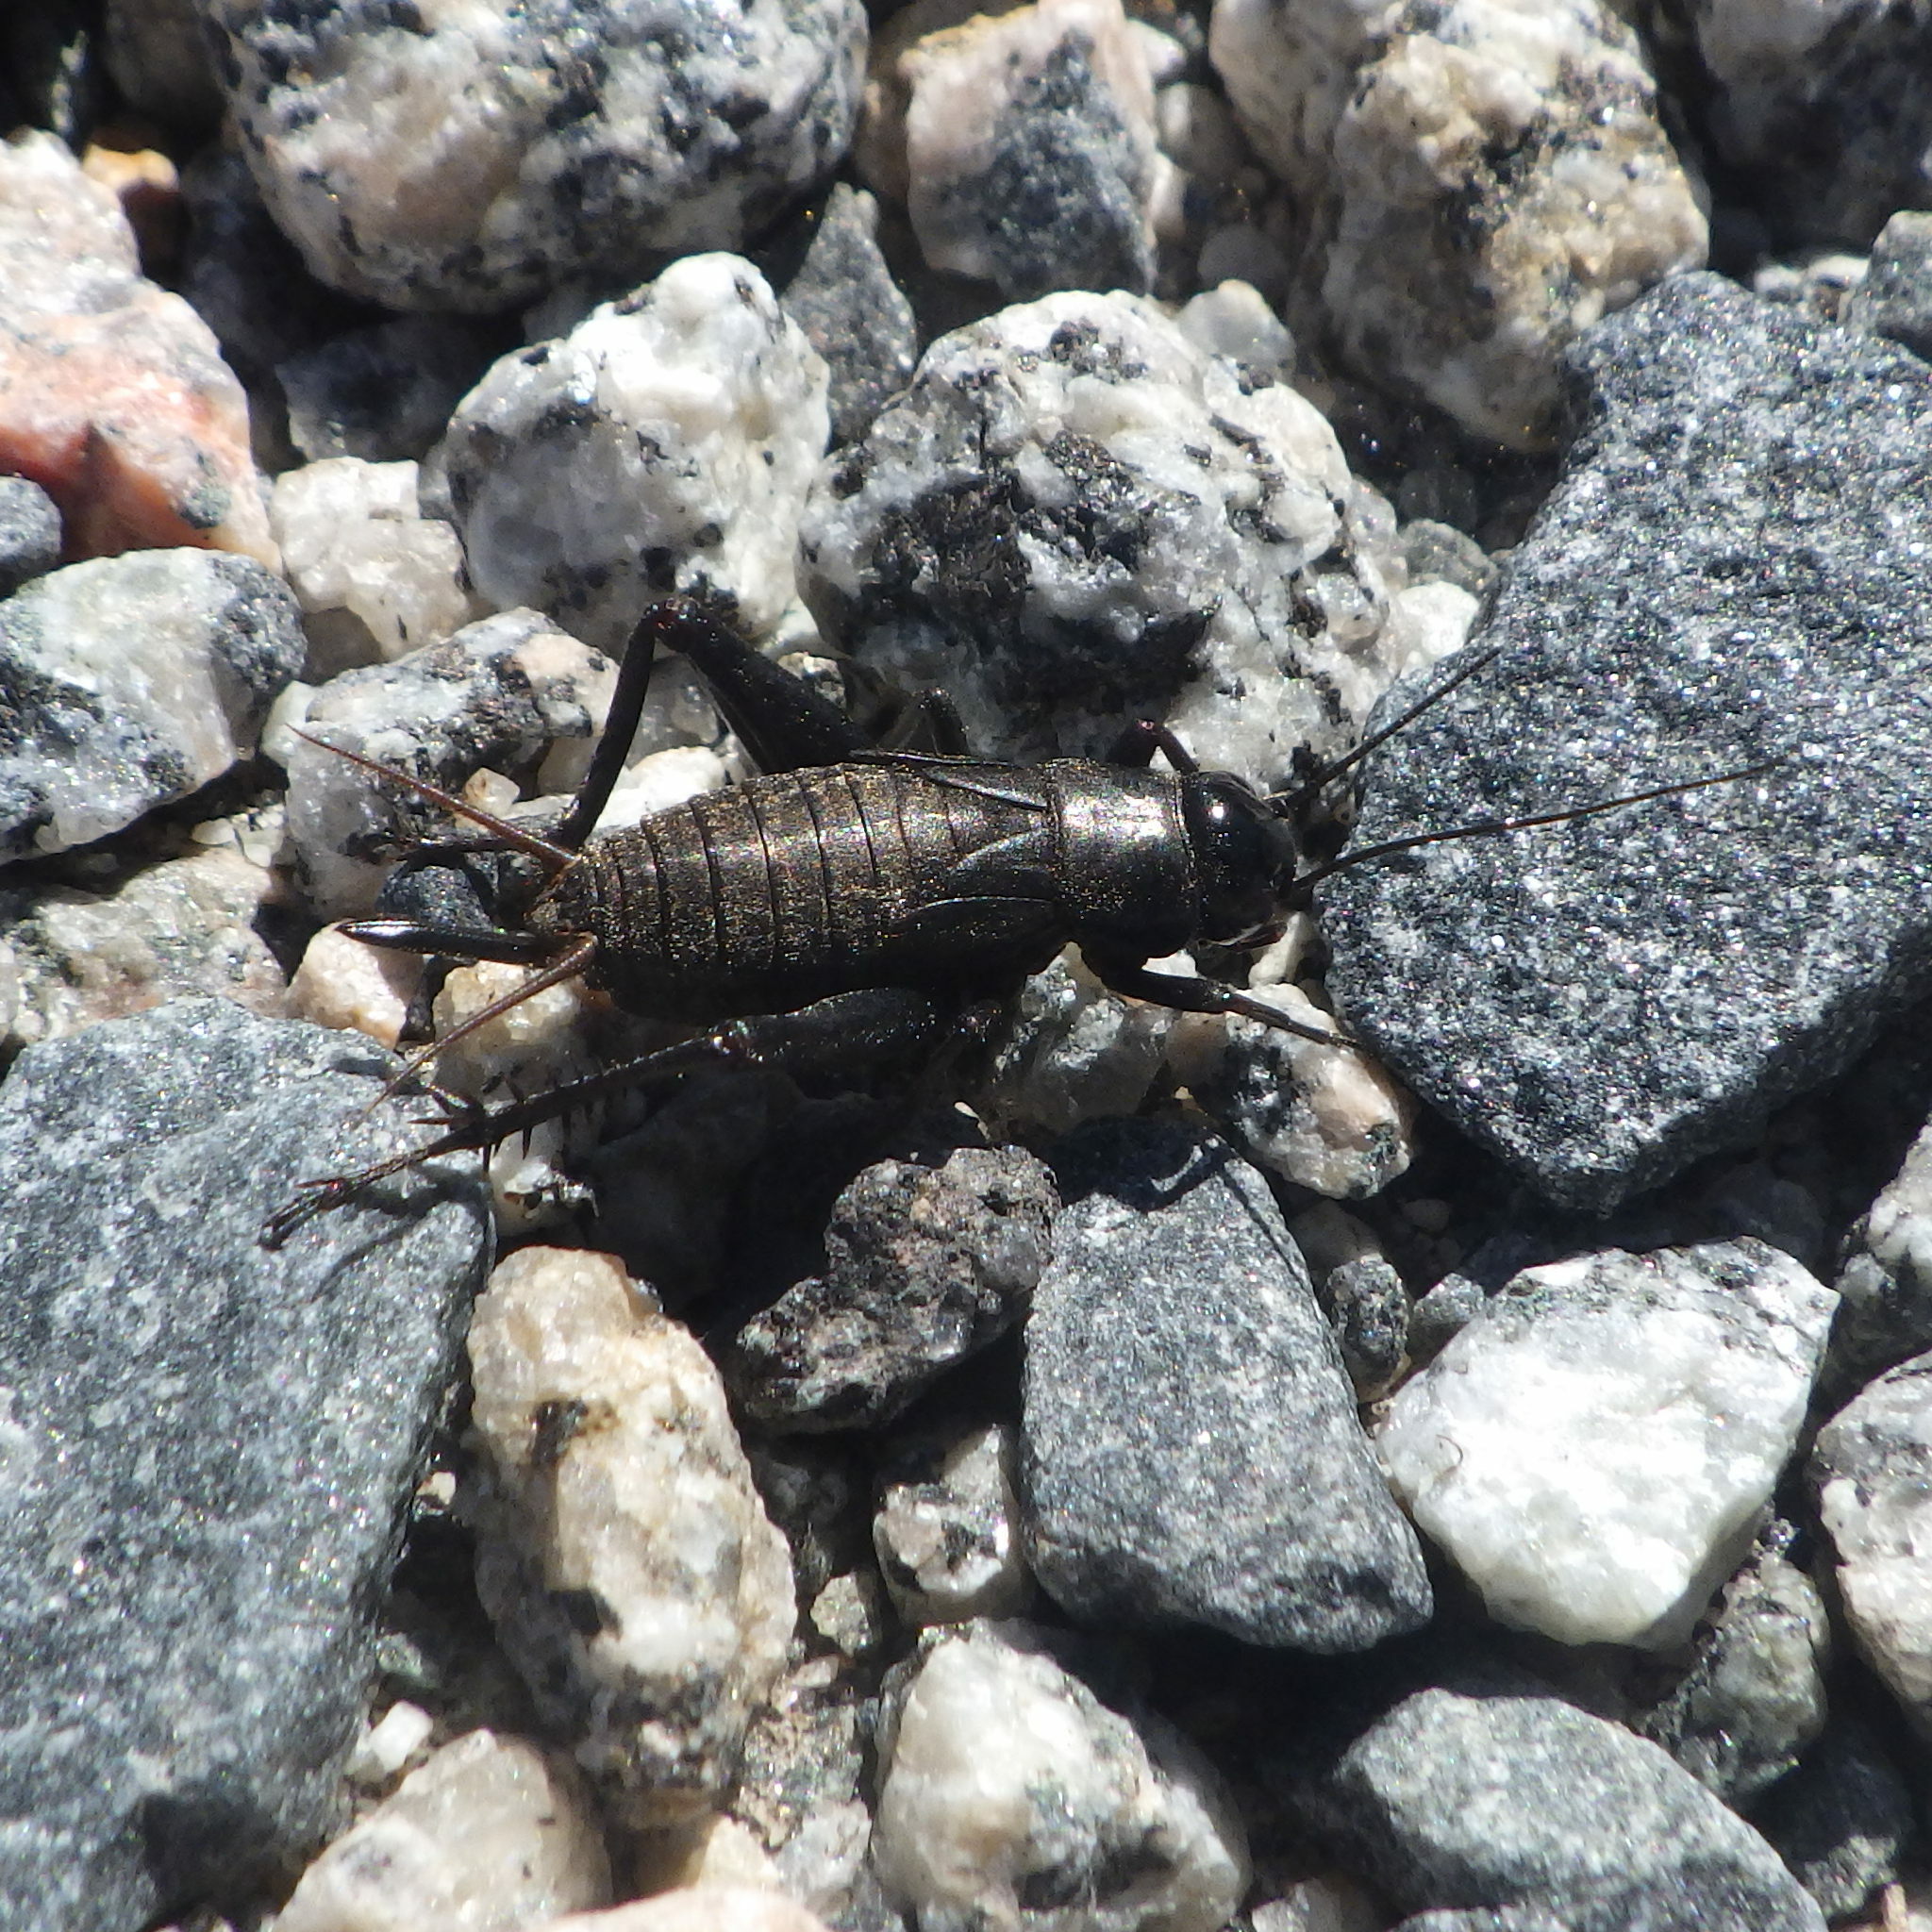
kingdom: Animalia
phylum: Arthropoda
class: Insecta
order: Orthoptera
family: Gryllidae
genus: Gryllus
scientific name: Gryllus pennsylvanicus
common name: Fall field cricket
